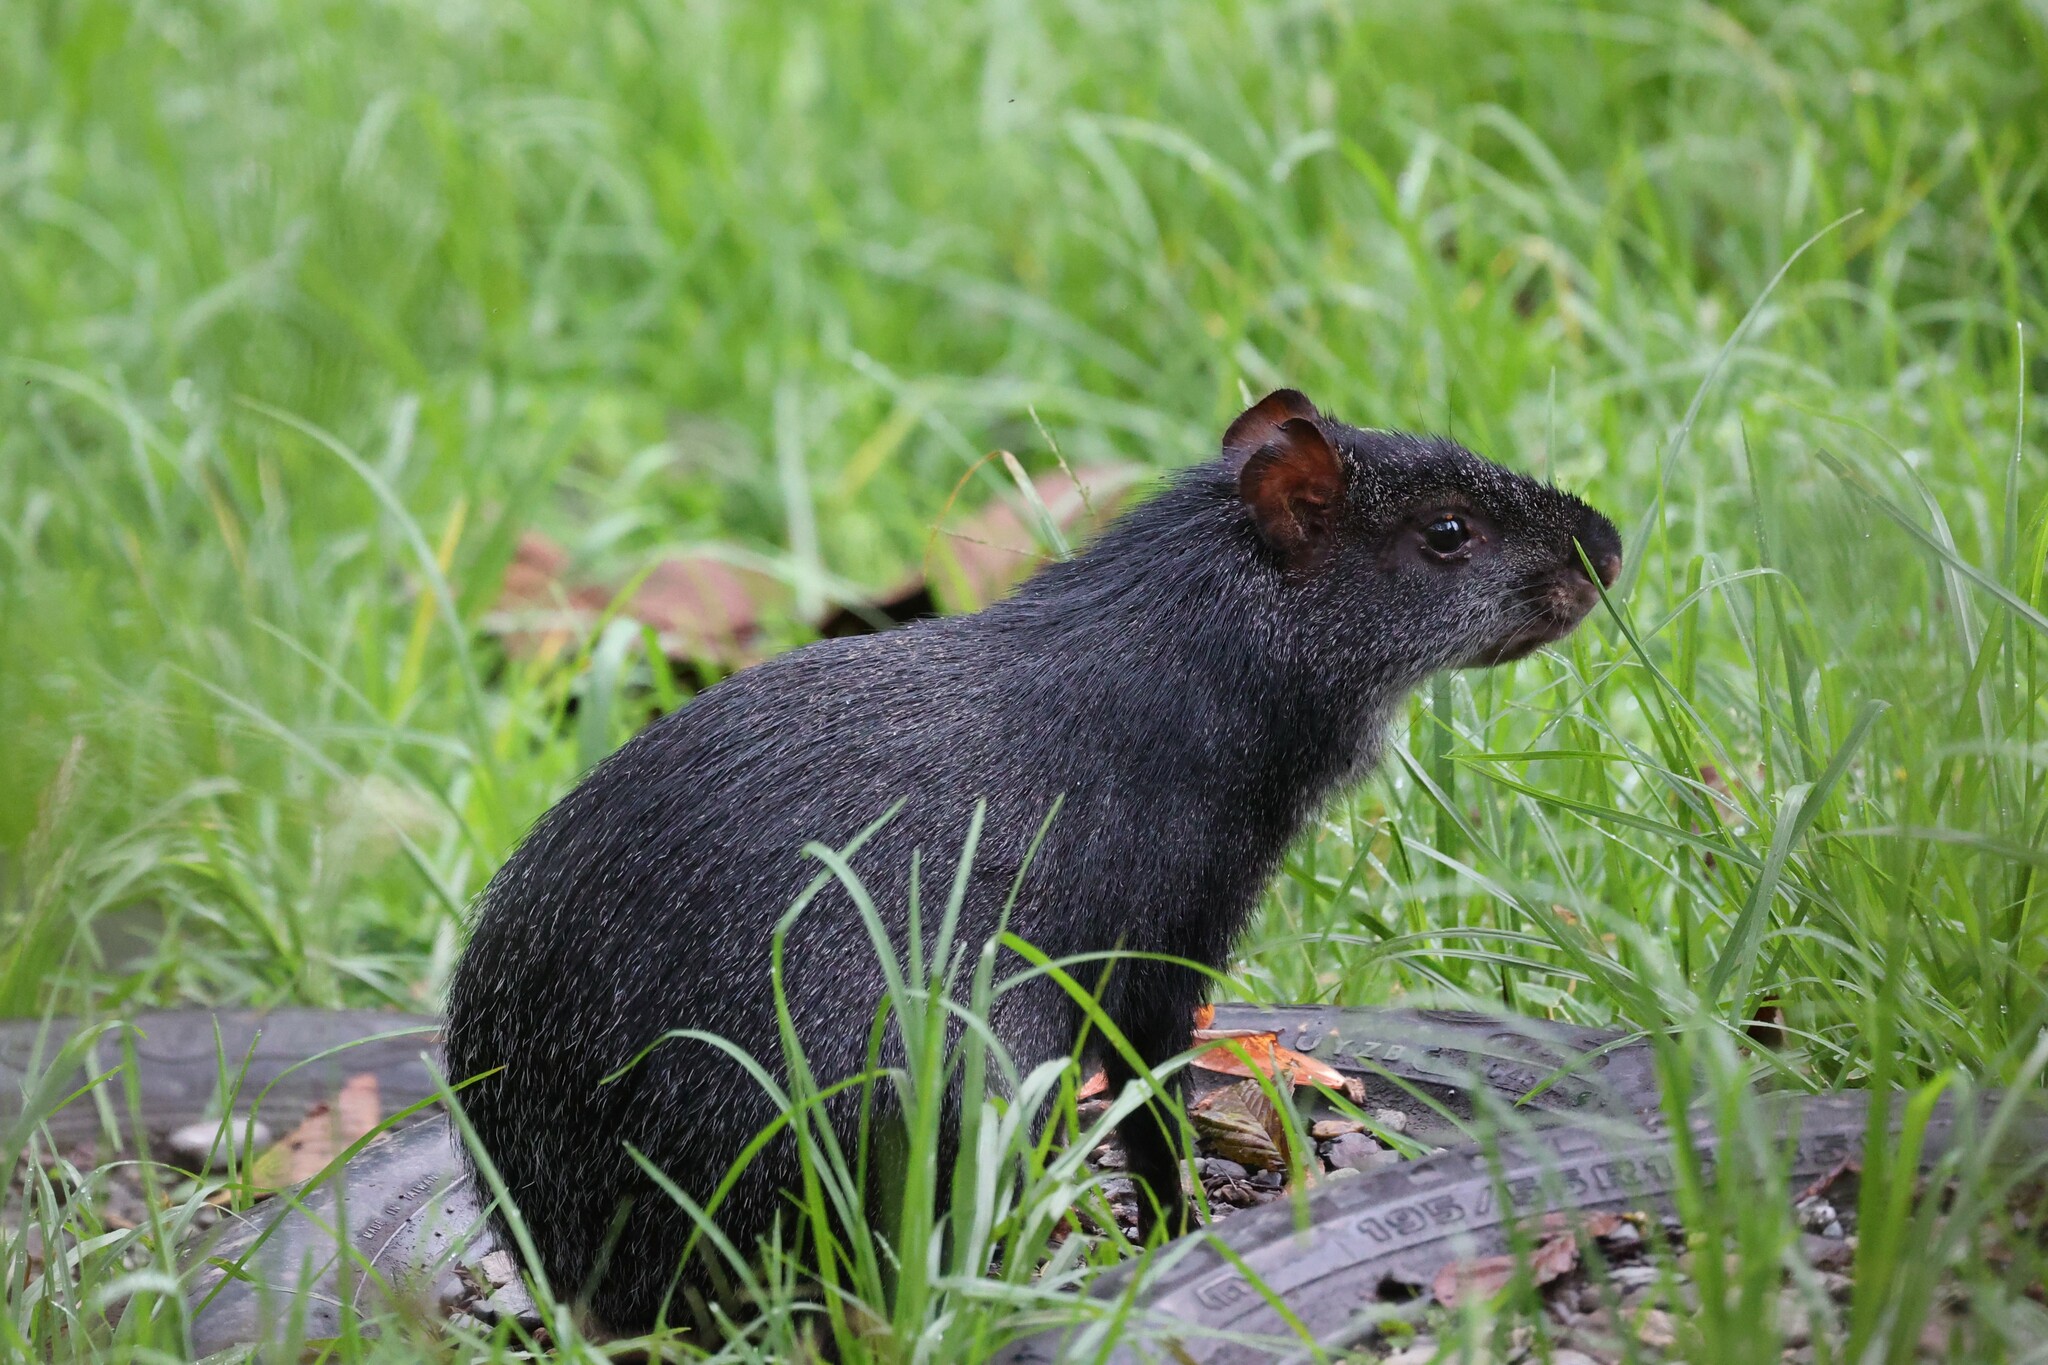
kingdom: Animalia
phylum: Chordata
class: Mammalia
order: Rodentia
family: Dasyproctidae
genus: Dasyprocta
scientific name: Dasyprocta fuliginosa
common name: Black agouti
